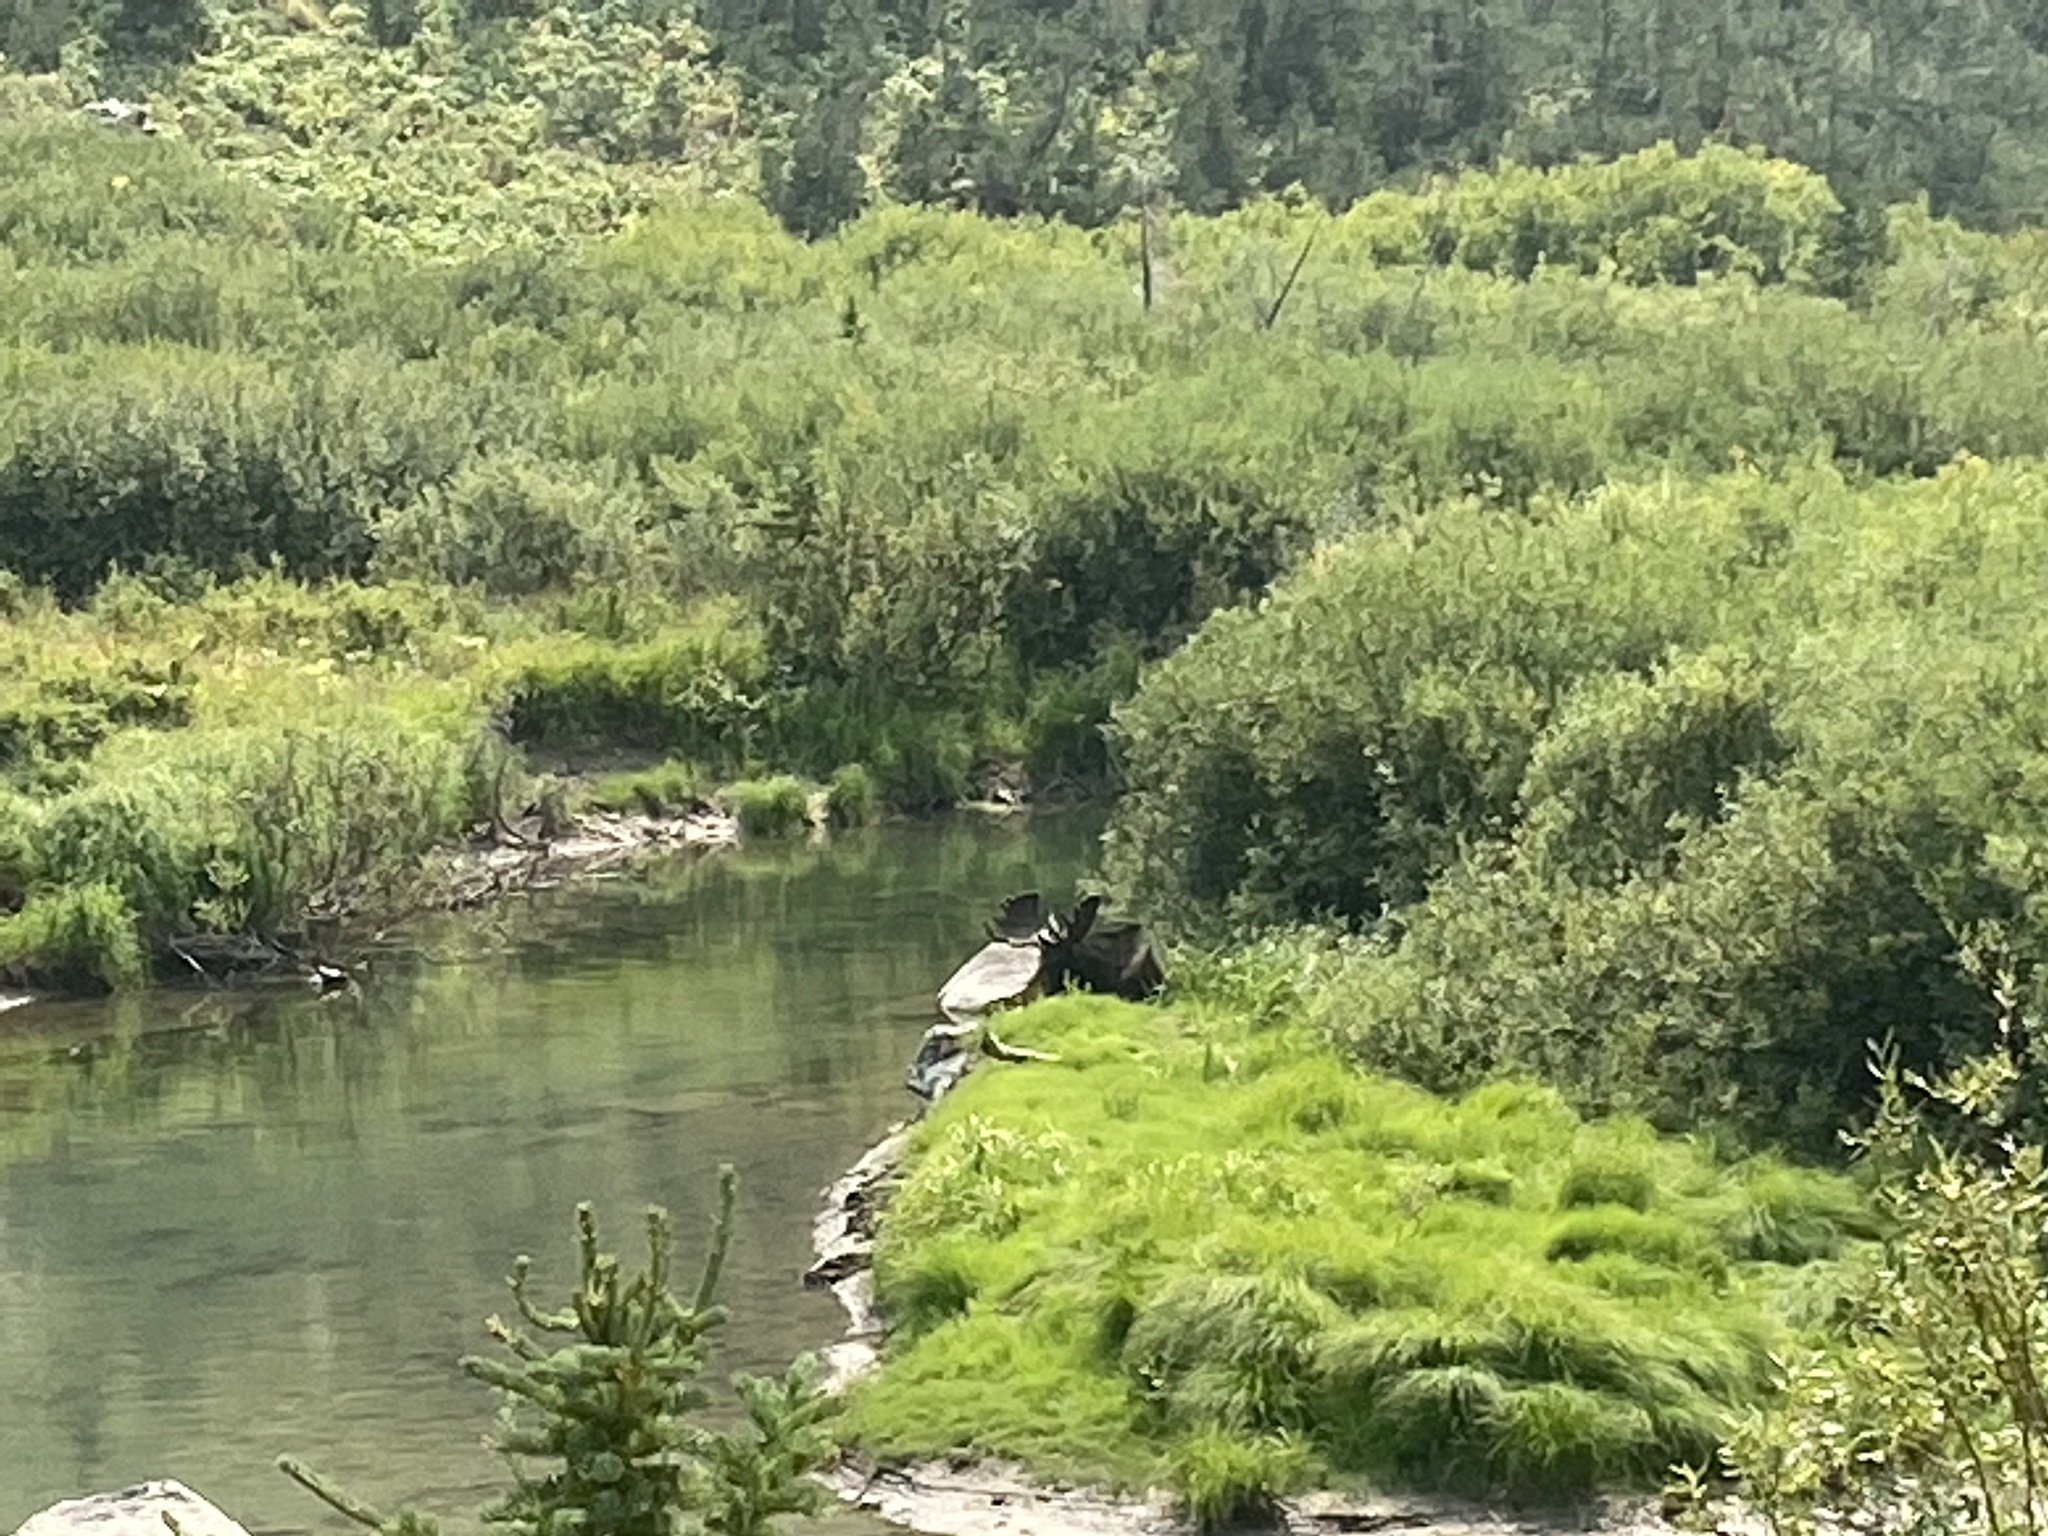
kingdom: Animalia
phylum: Chordata
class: Mammalia
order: Artiodactyla
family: Cervidae
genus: Alces
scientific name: Alces alces
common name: Moose
